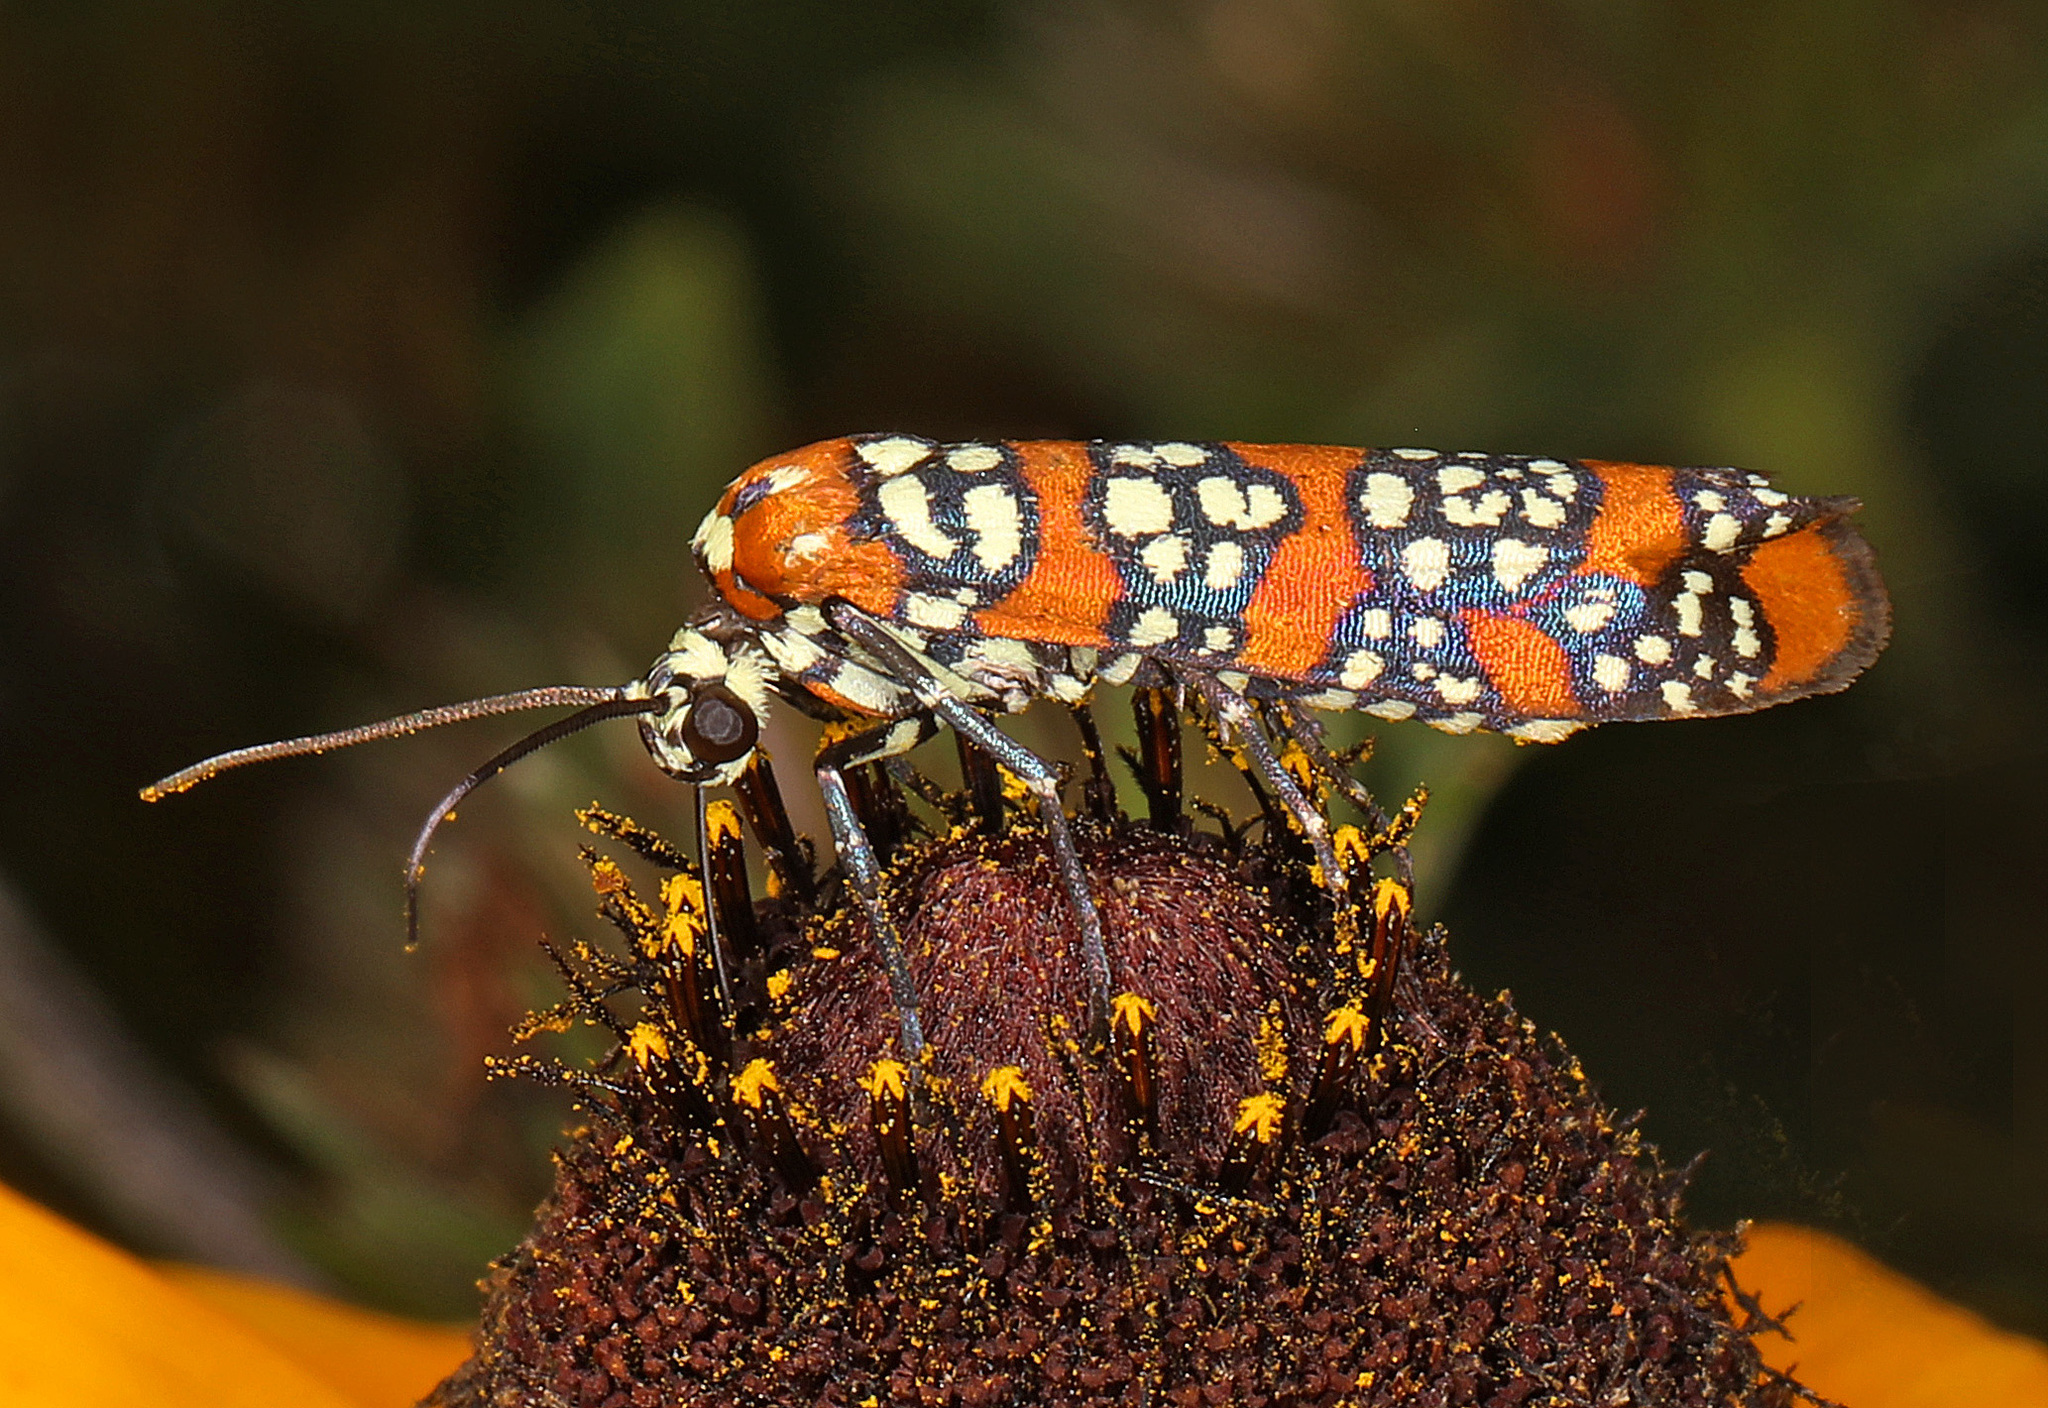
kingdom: Animalia
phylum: Arthropoda
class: Insecta
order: Lepidoptera
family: Attevidae
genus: Atteva
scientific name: Atteva punctella
